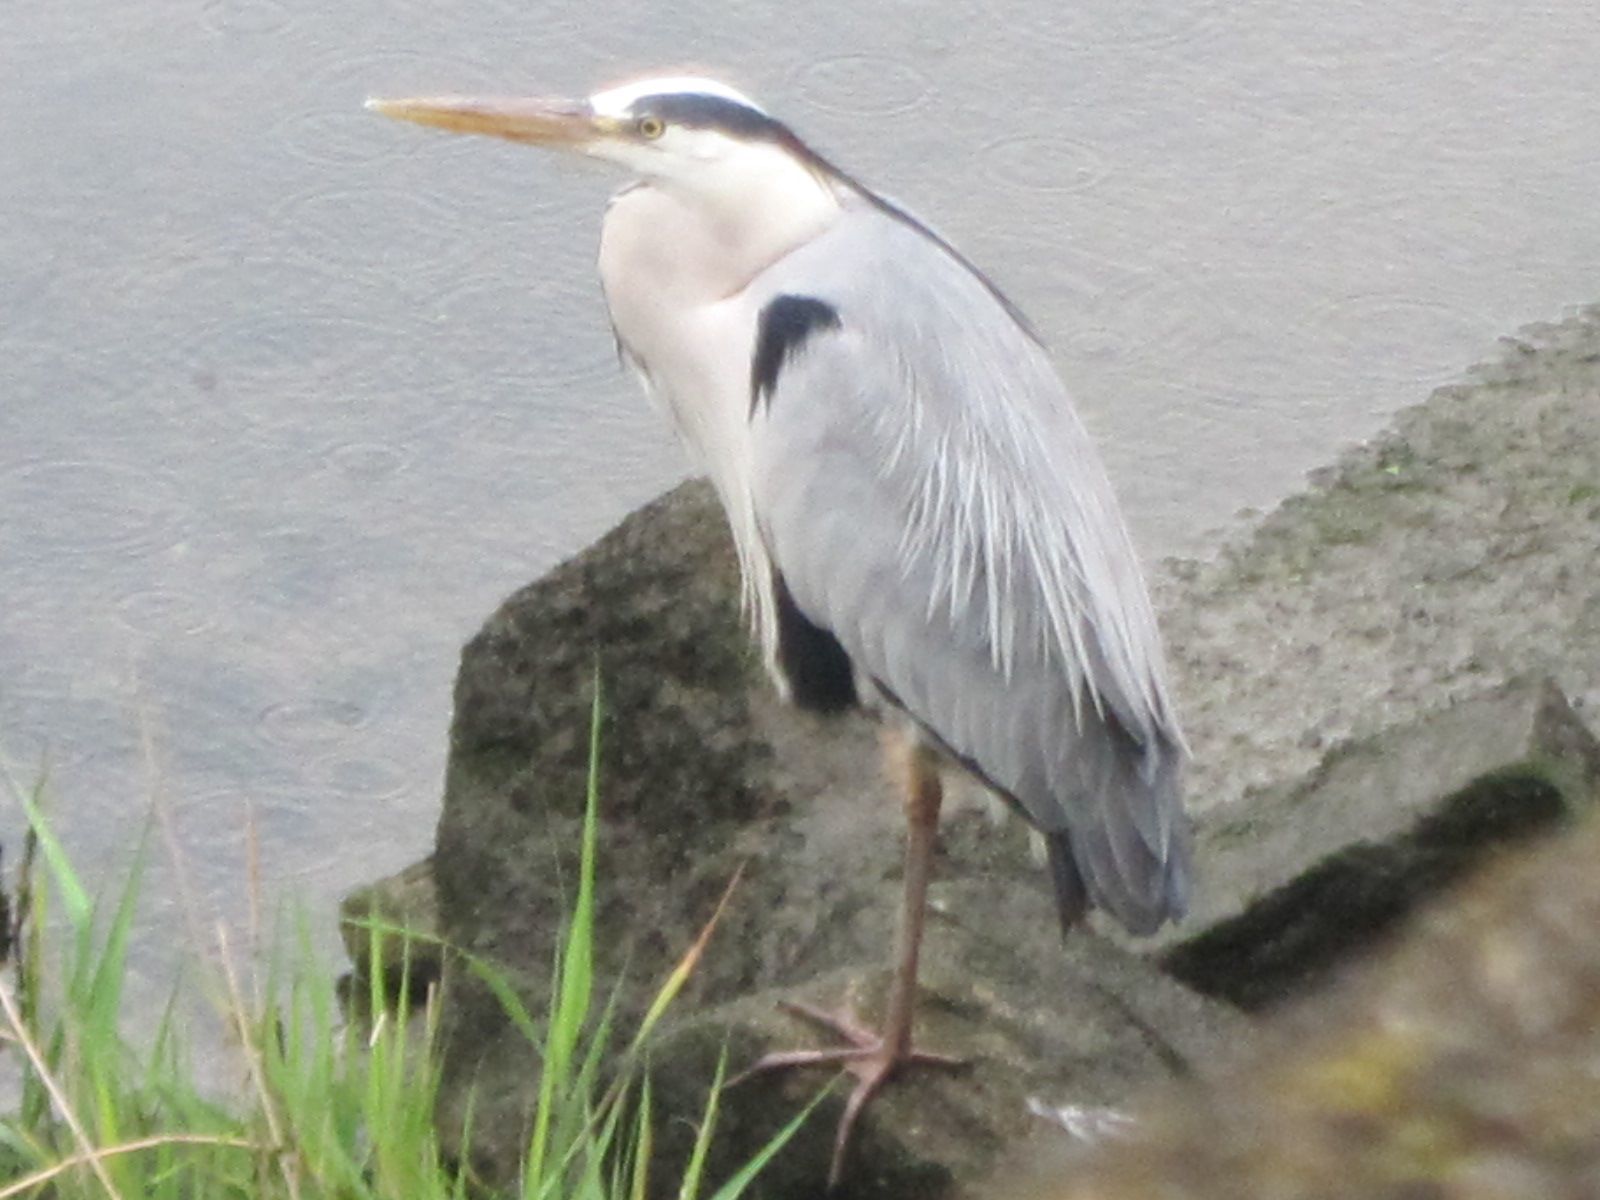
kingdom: Animalia
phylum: Chordata
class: Aves
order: Pelecaniformes
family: Ardeidae
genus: Ardea
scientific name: Ardea cinerea
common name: Grey heron
